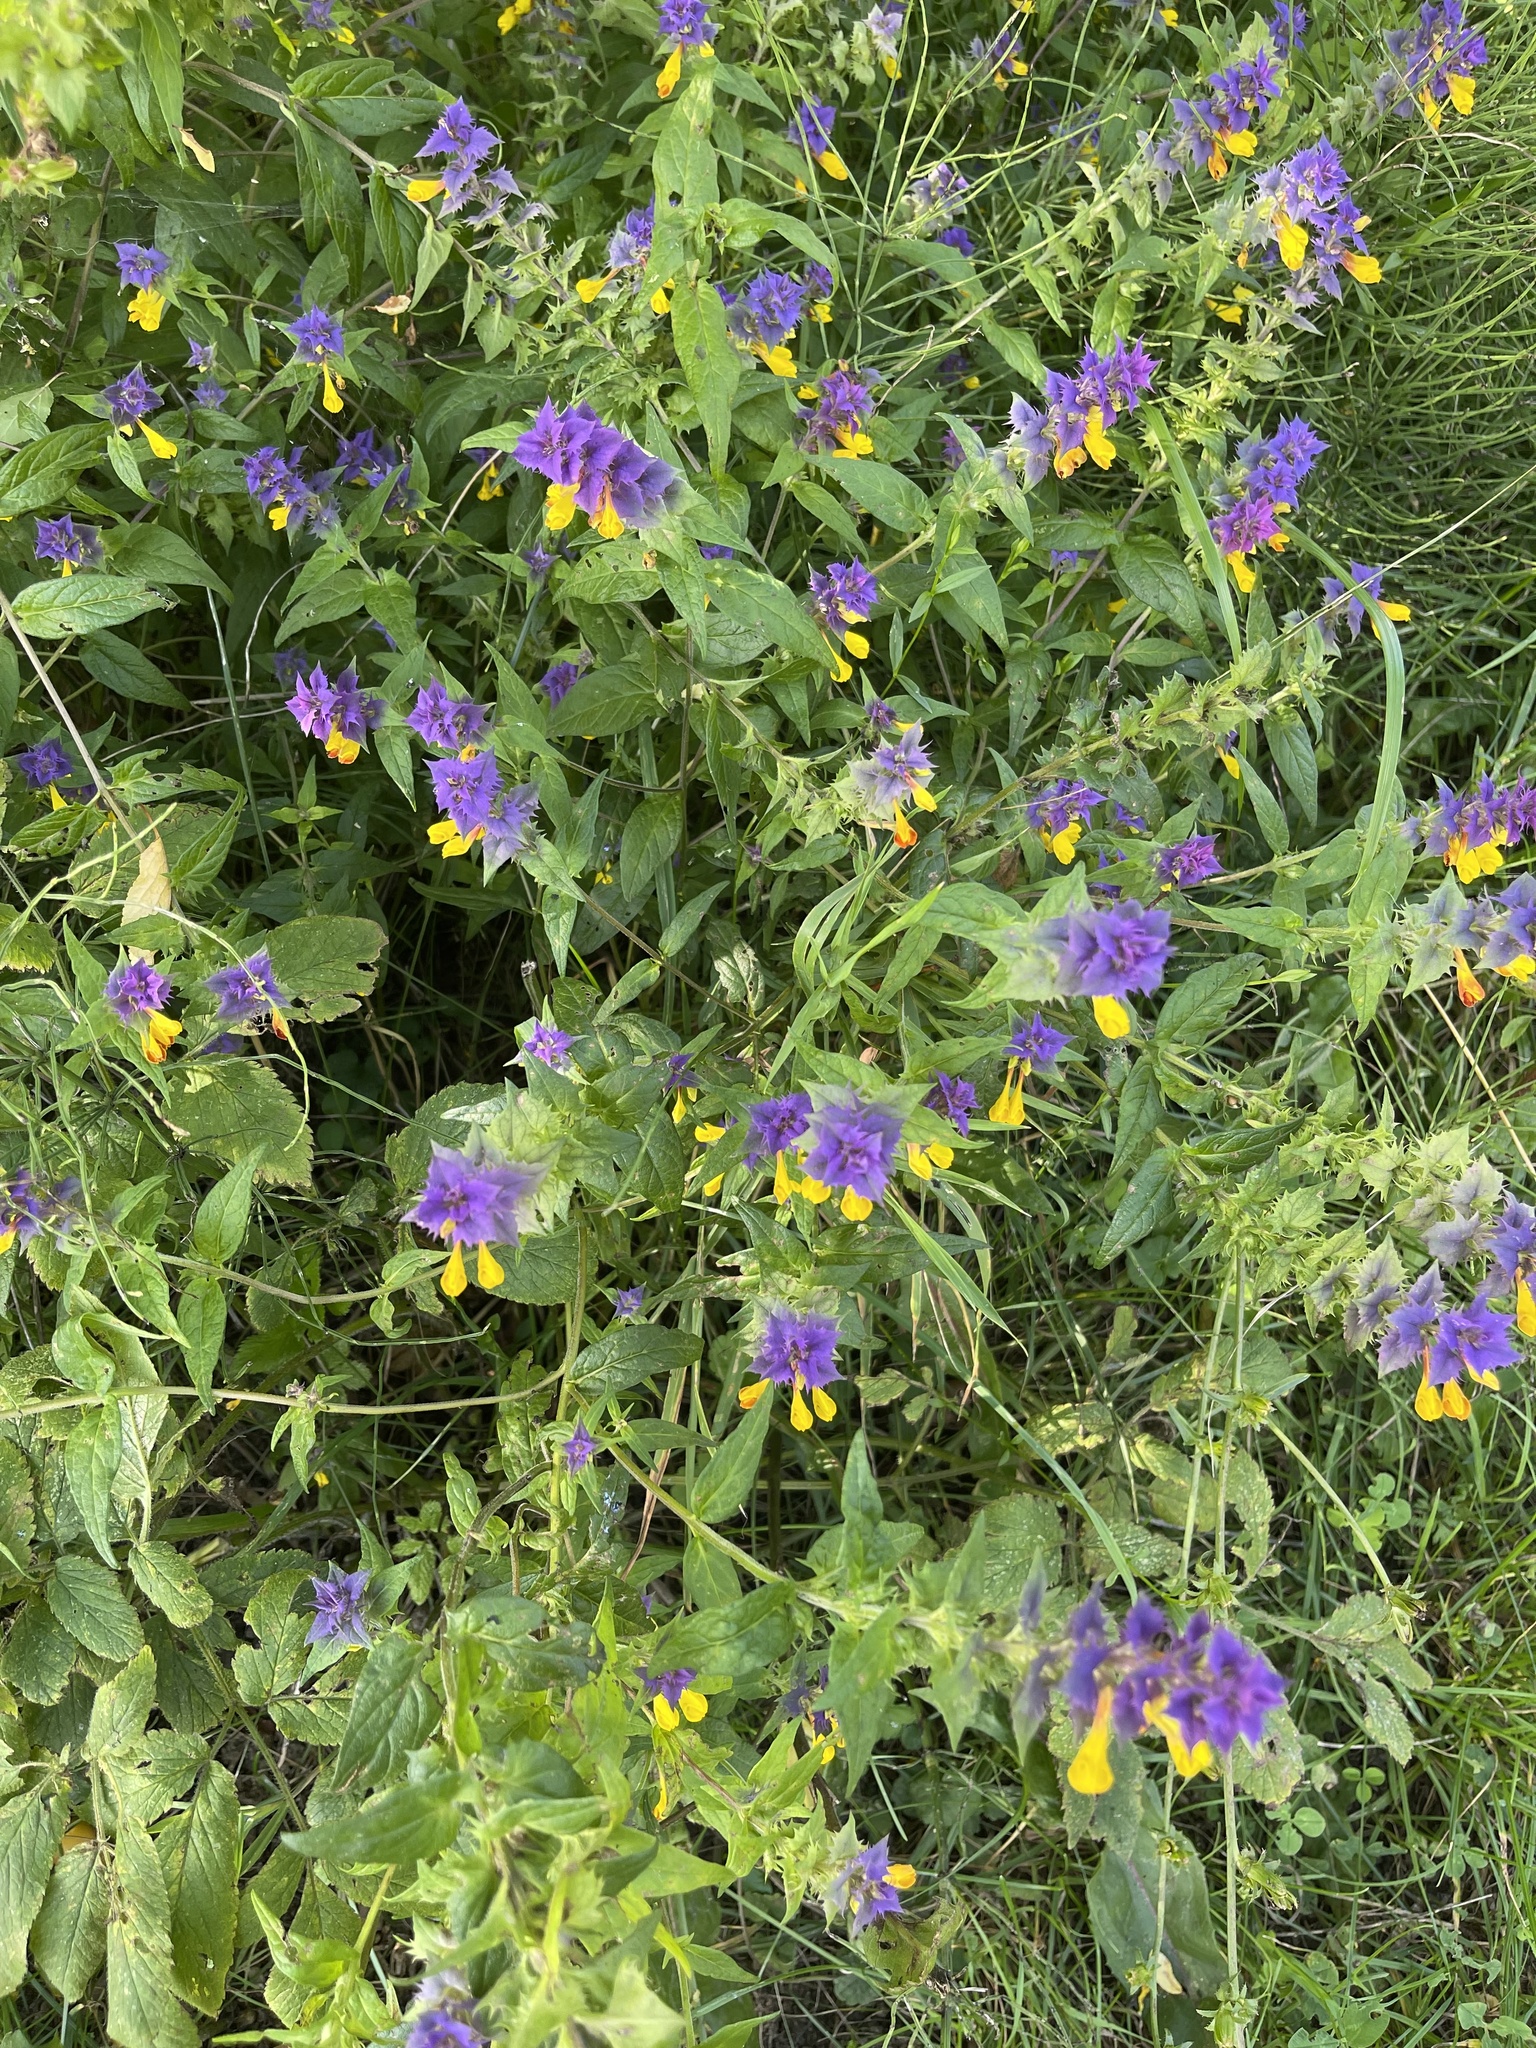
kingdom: Plantae
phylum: Tracheophyta
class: Magnoliopsida
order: Lamiales
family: Orobanchaceae
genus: Melampyrum
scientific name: Melampyrum nemorosum
